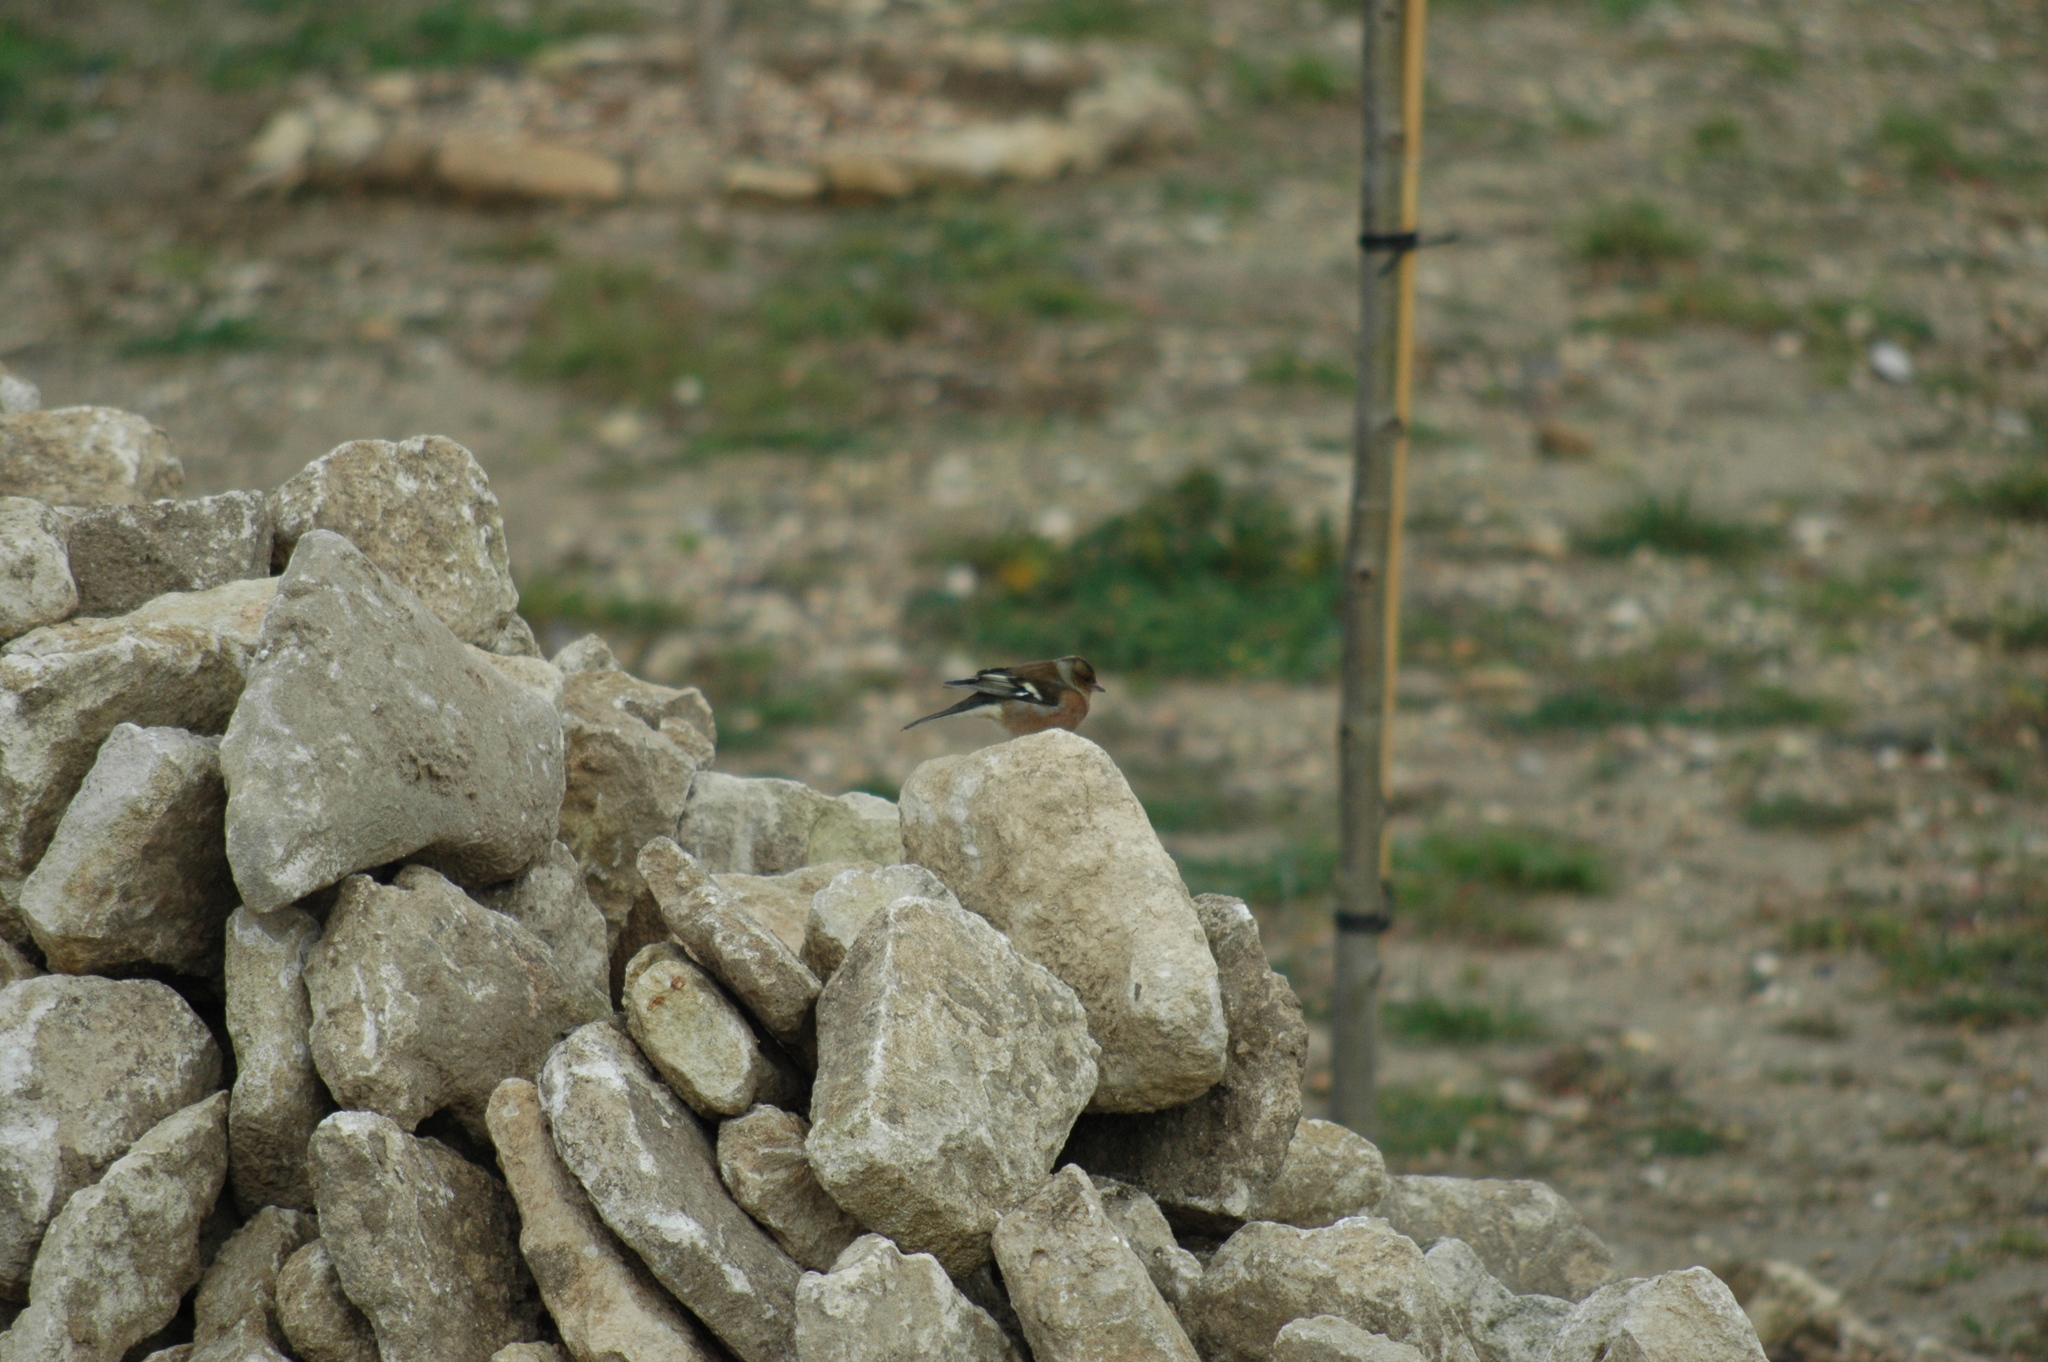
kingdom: Animalia
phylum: Chordata
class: Aves
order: Passeriformes
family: Fringillidae
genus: Fringilla
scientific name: Fringilla coelebs
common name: Common chaffinch
